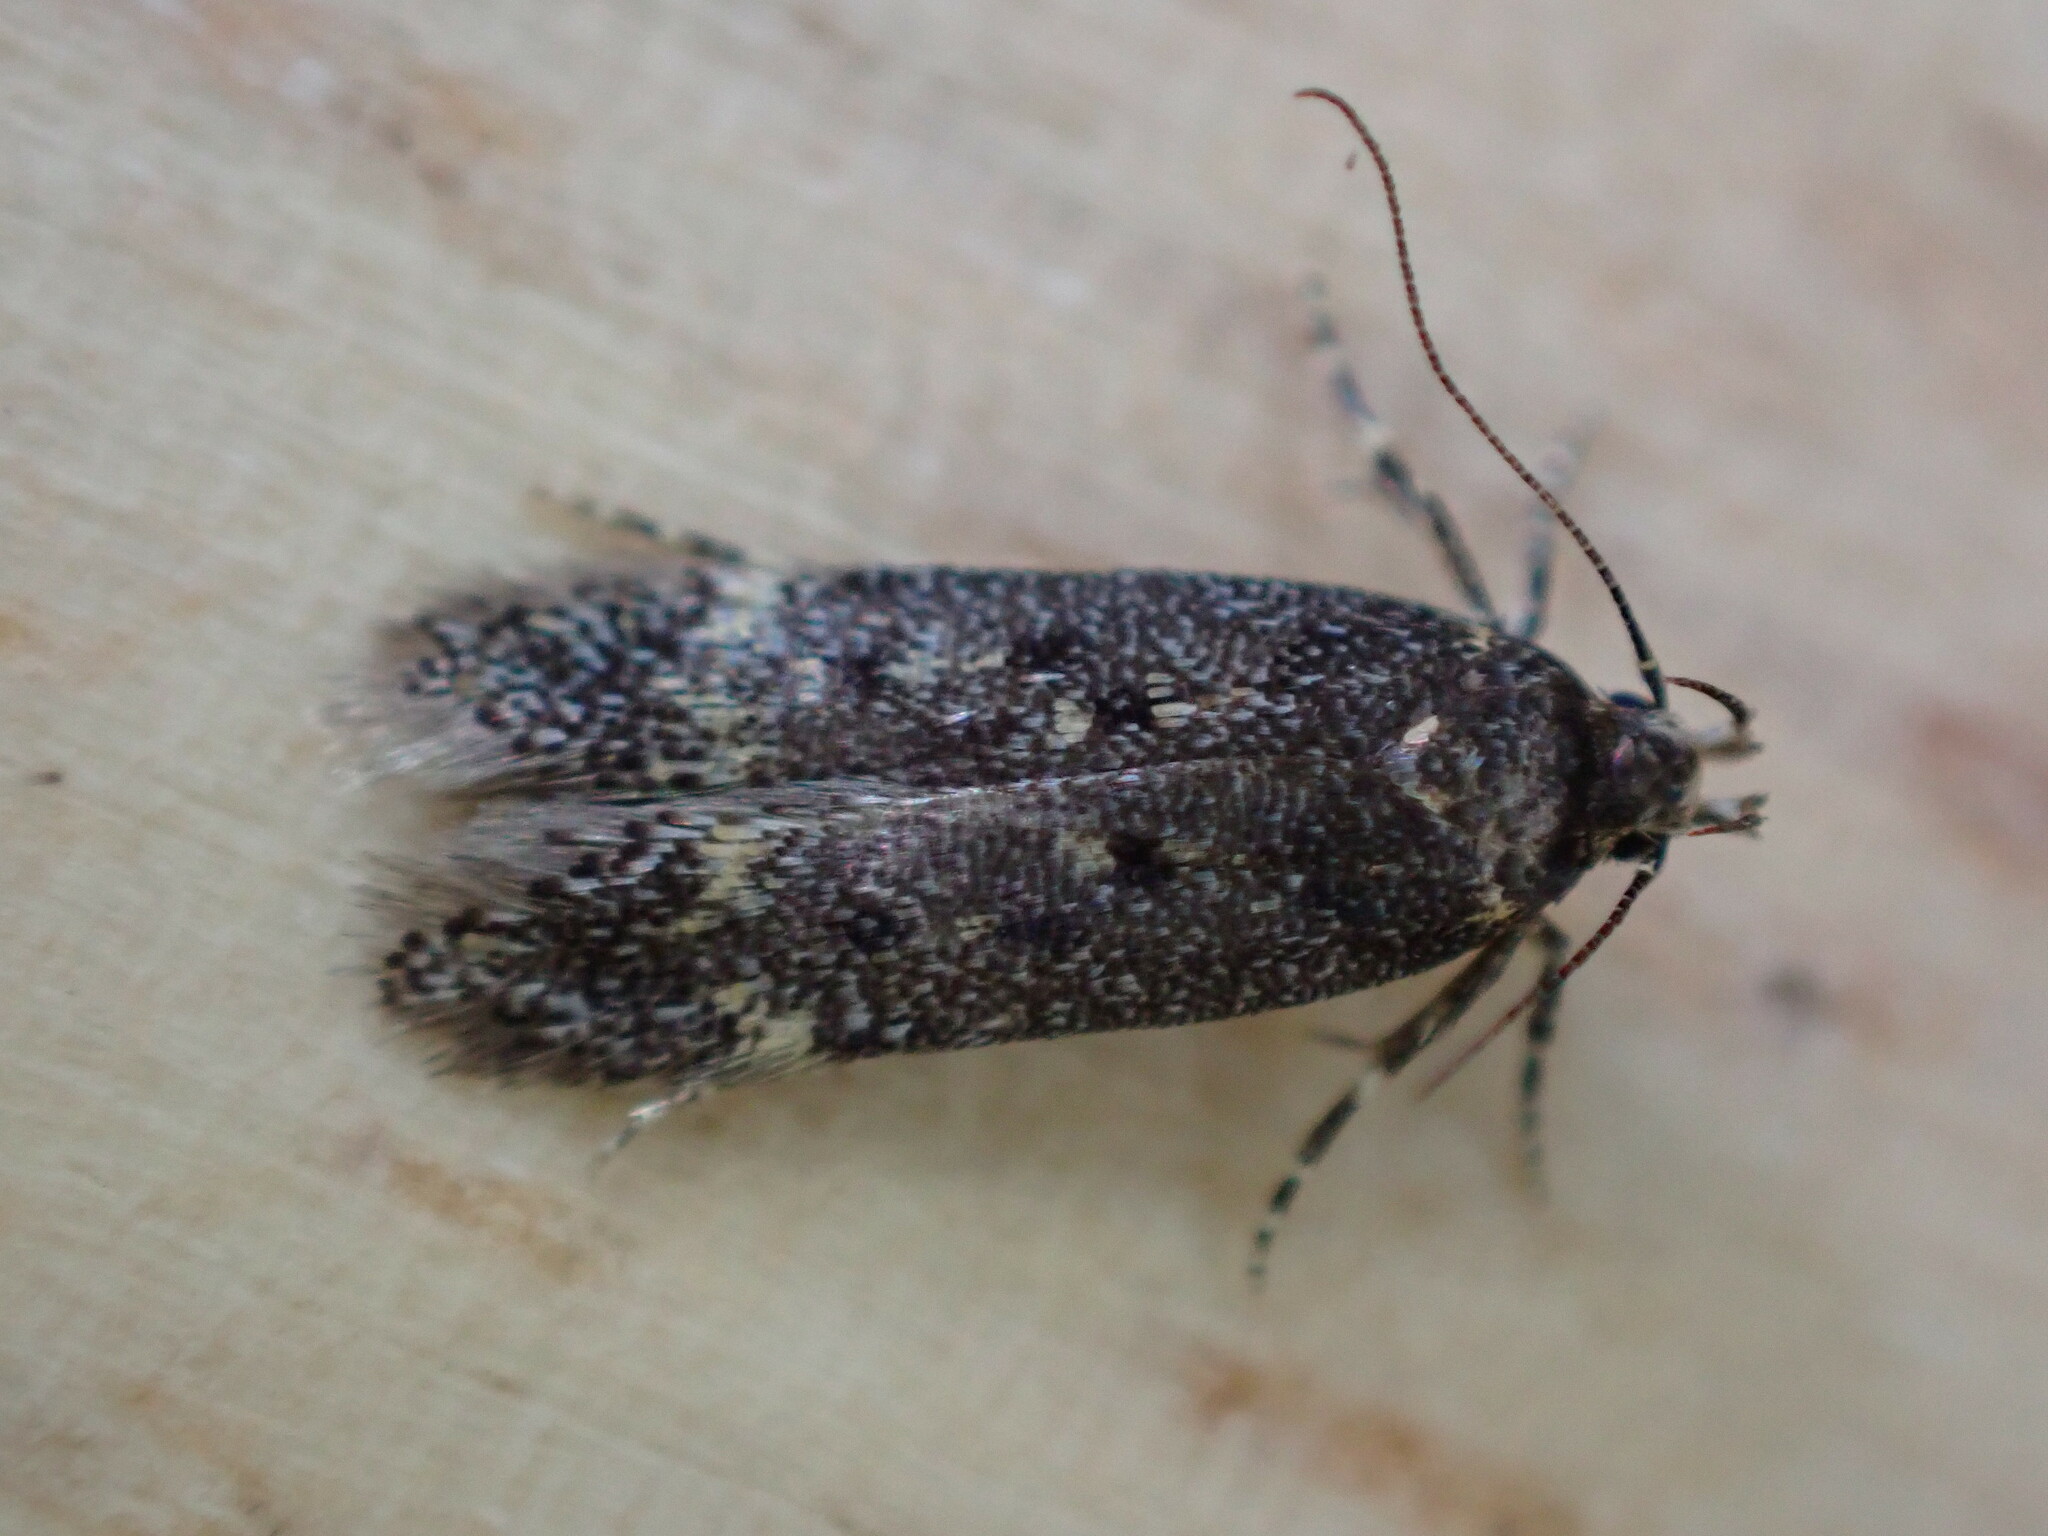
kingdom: Animalia
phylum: Arthropoda
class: Insecta
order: Lepidoptera
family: Gelechiidae
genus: Bryotropha
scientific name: Bryotropha affinis
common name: Dark groundling
